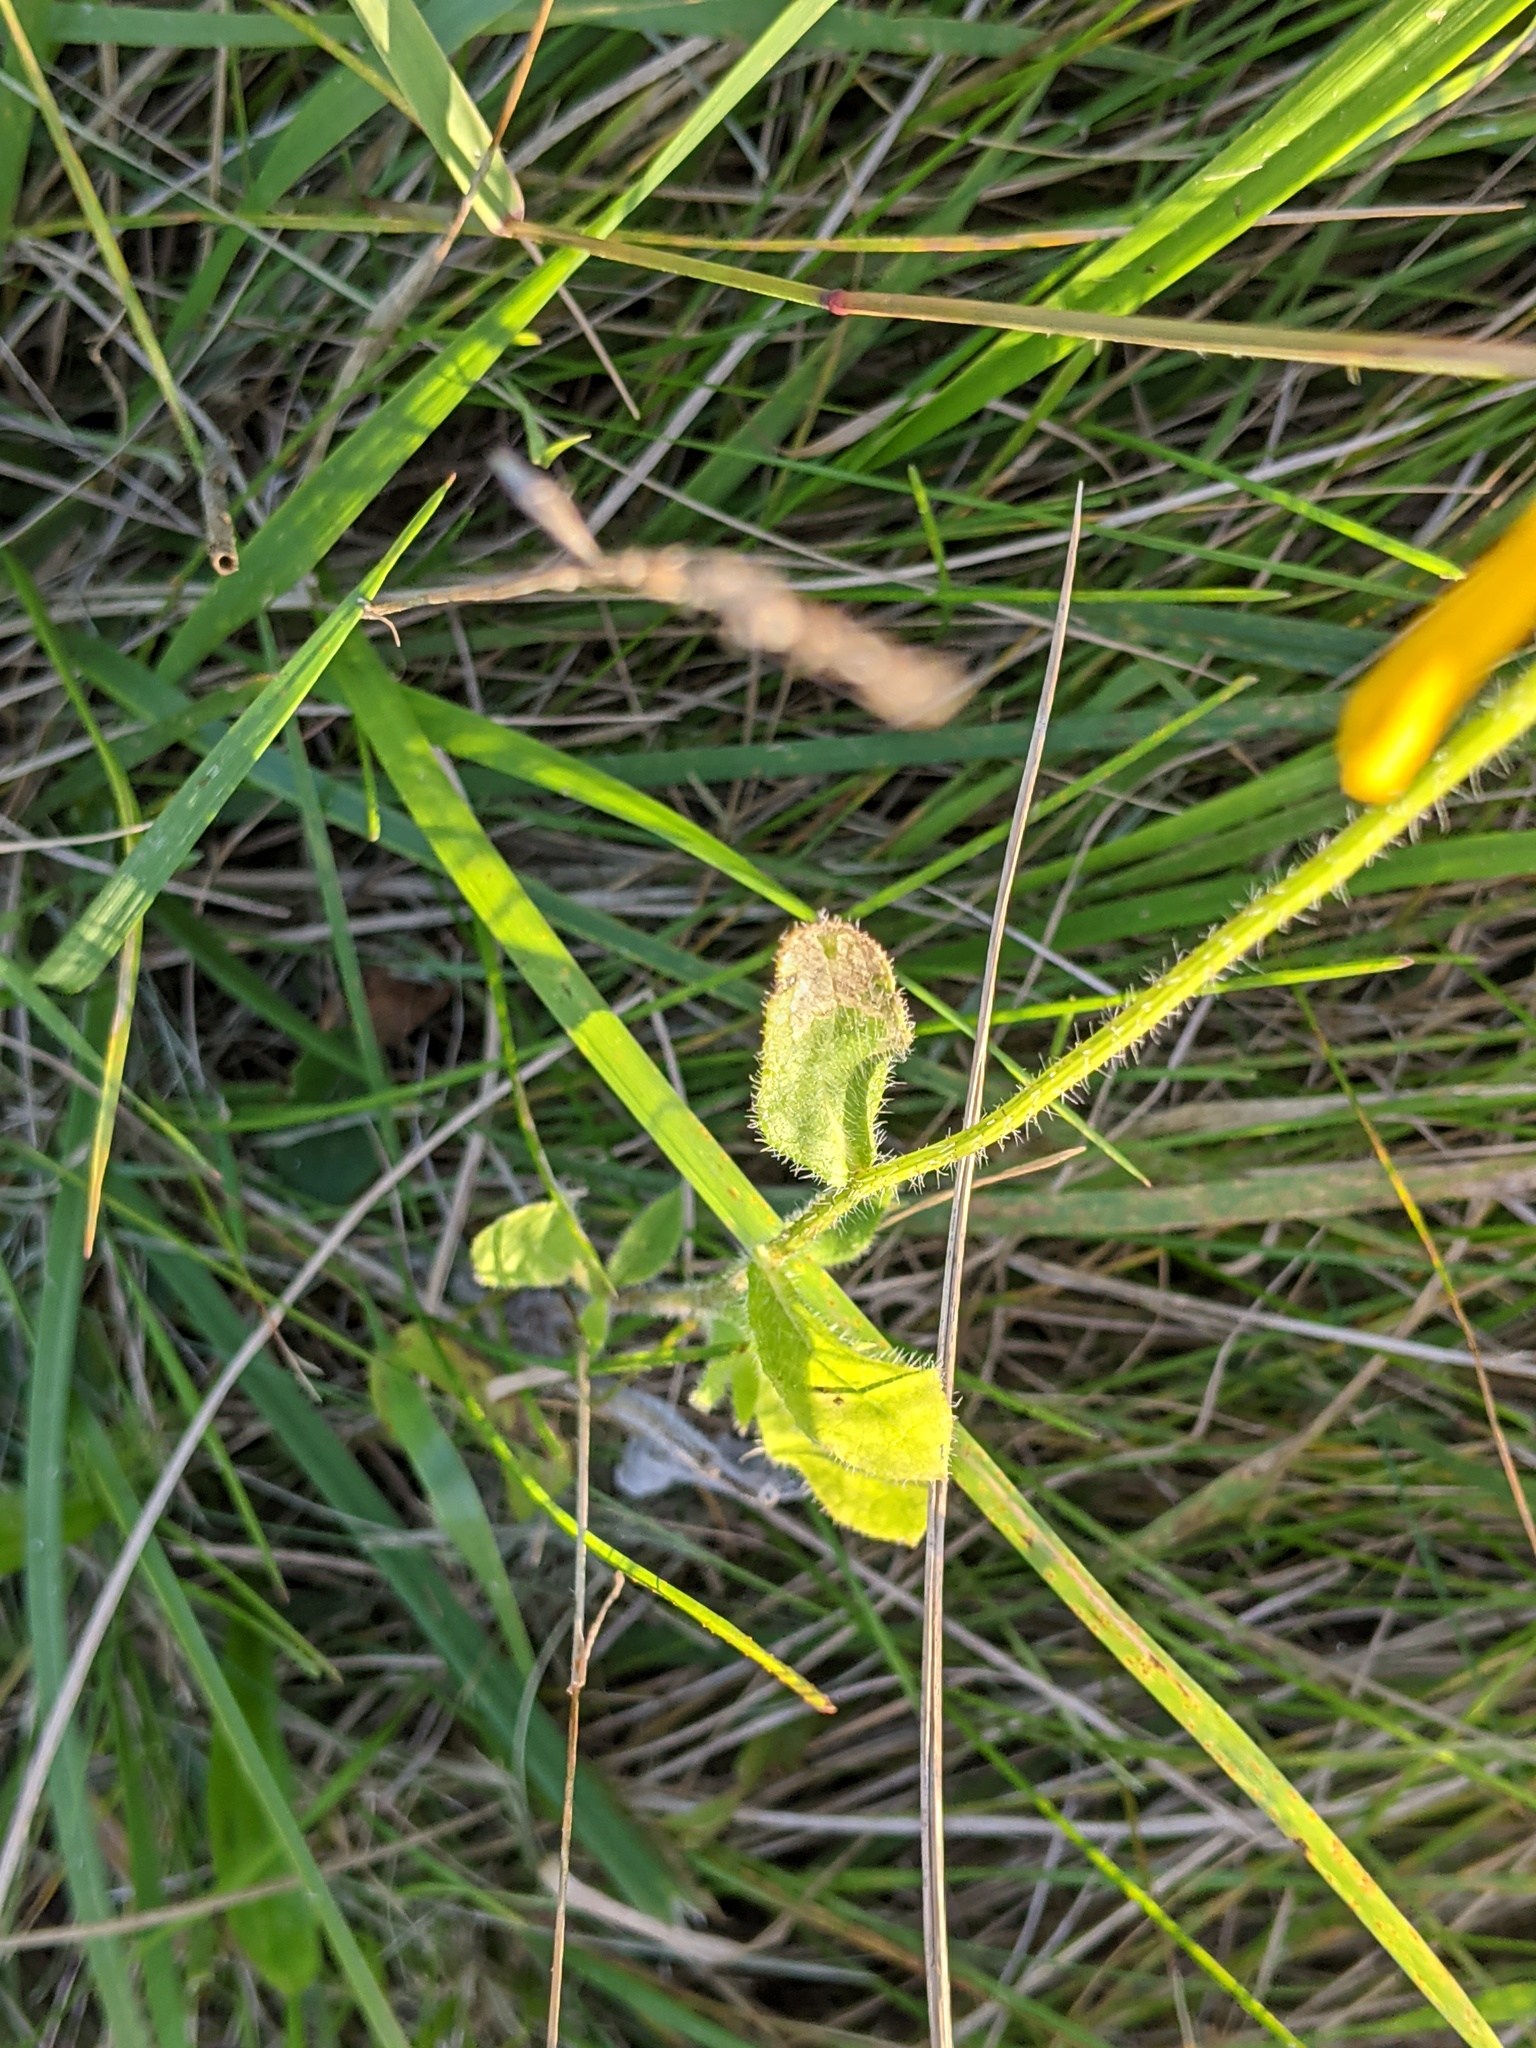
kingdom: Plantae
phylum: Tracheophyta
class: Magnoliopsida
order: Asterales
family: Asteraceae
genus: Rudbeckia
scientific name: Rudbeckia hirta
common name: Black-eyed-susan
